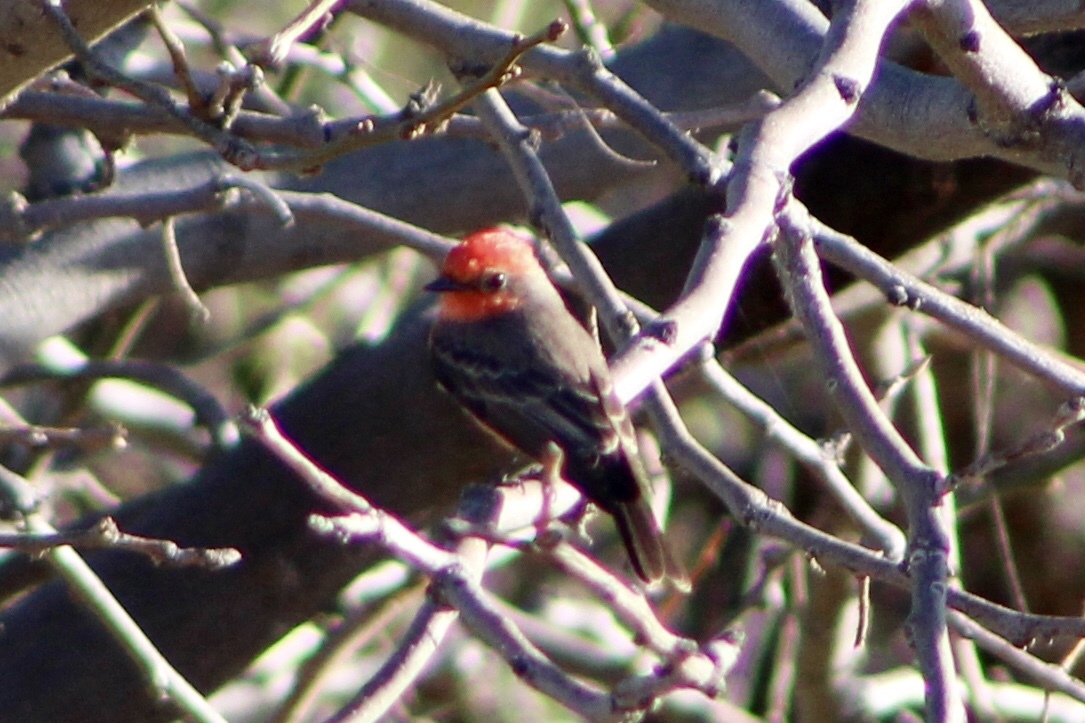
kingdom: Animalia
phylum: Chordata
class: Aves
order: Passeriformes
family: Tyrannidae
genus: Pyrocephalus
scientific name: Pyrocephalus rubinus
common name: Vermilion flycatcher
